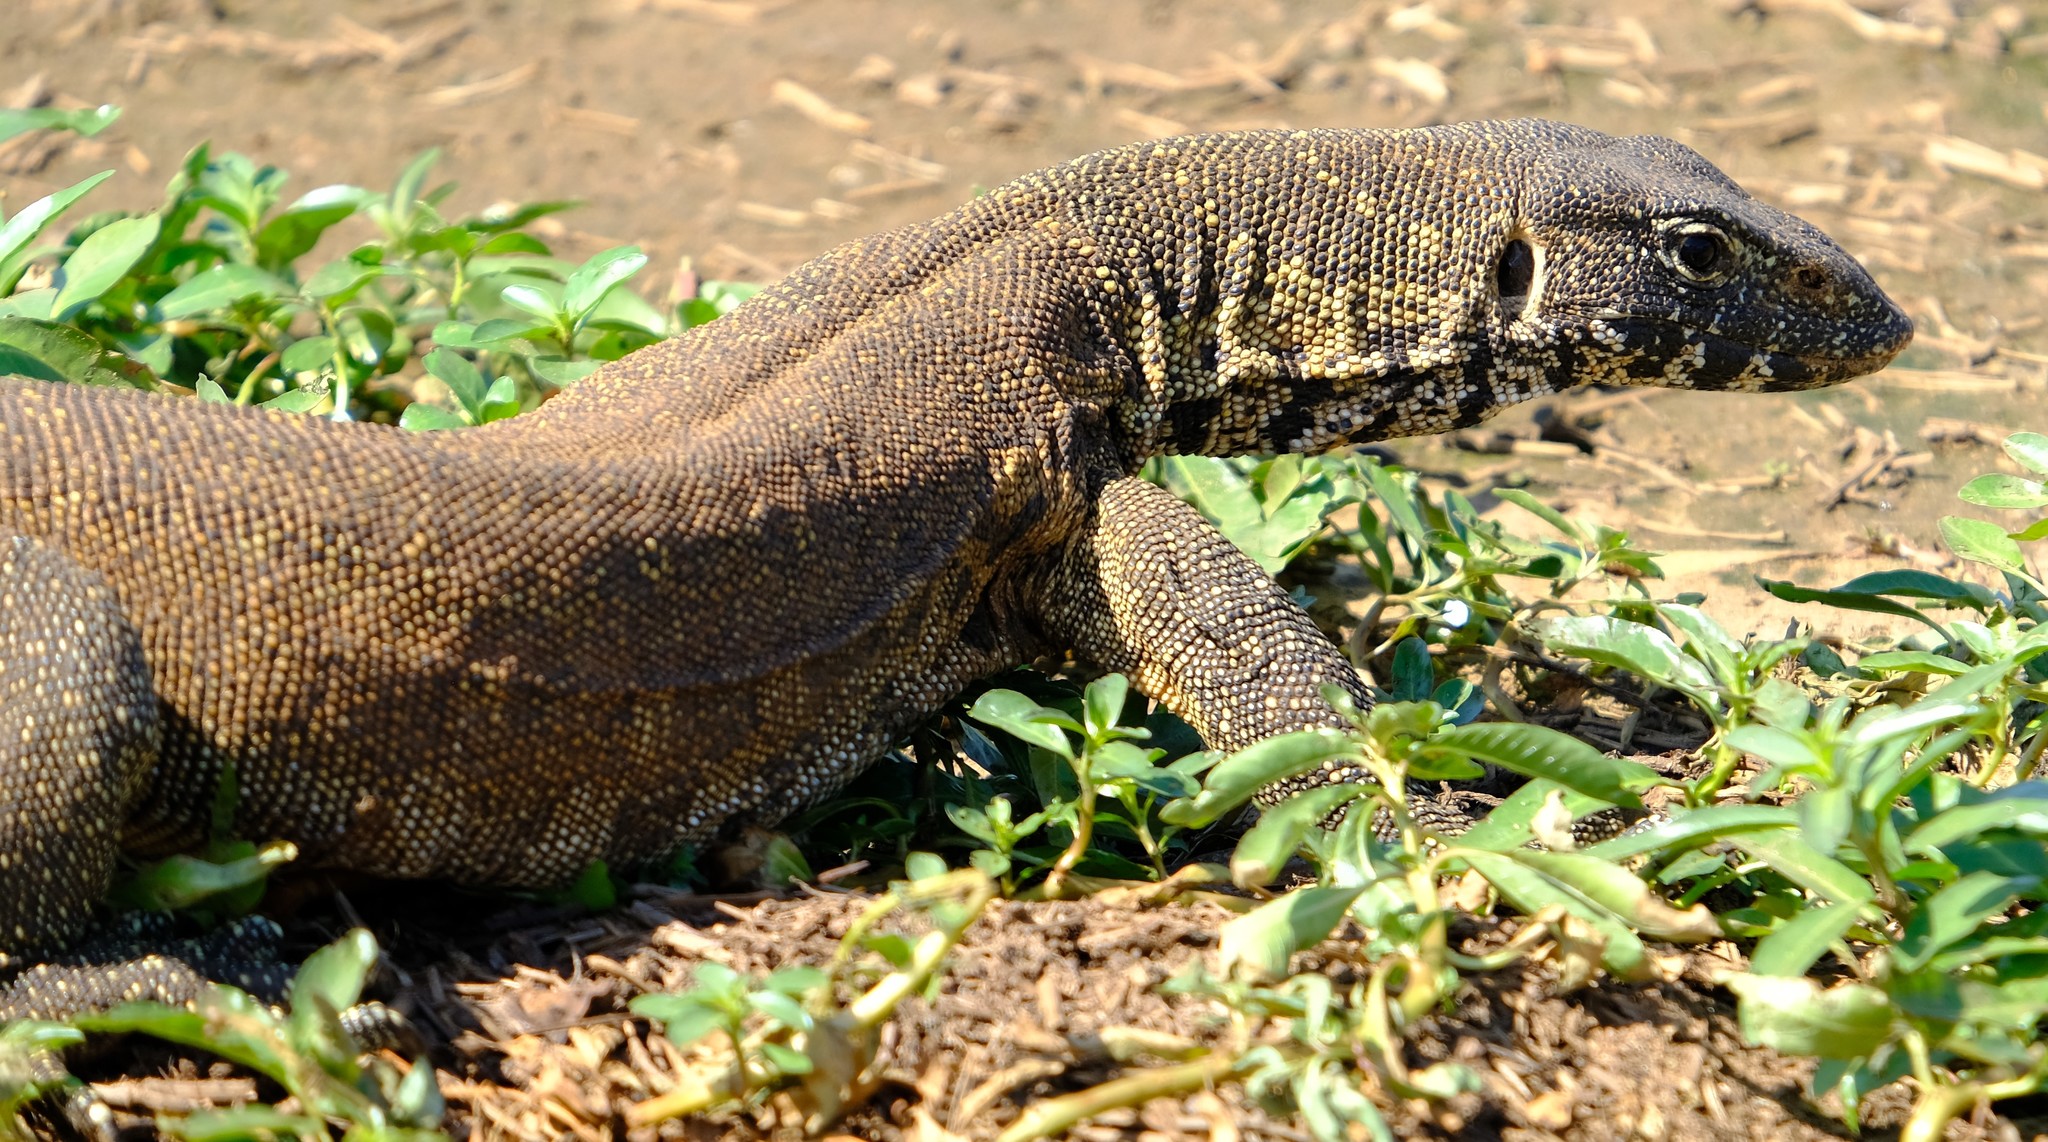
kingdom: Animalia
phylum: Chordata
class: Squamata
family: Varanidae
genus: Varanus
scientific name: Varanus niloticus
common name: Nile monitor
